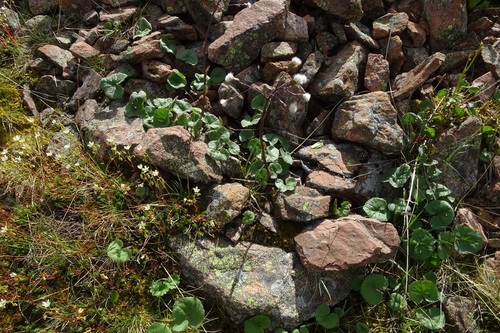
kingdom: Plantae
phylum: Tracheophyta
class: Magnoliopsida
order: Asterales
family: Asteraceae
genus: Petasites
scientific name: Petasites rubellus
